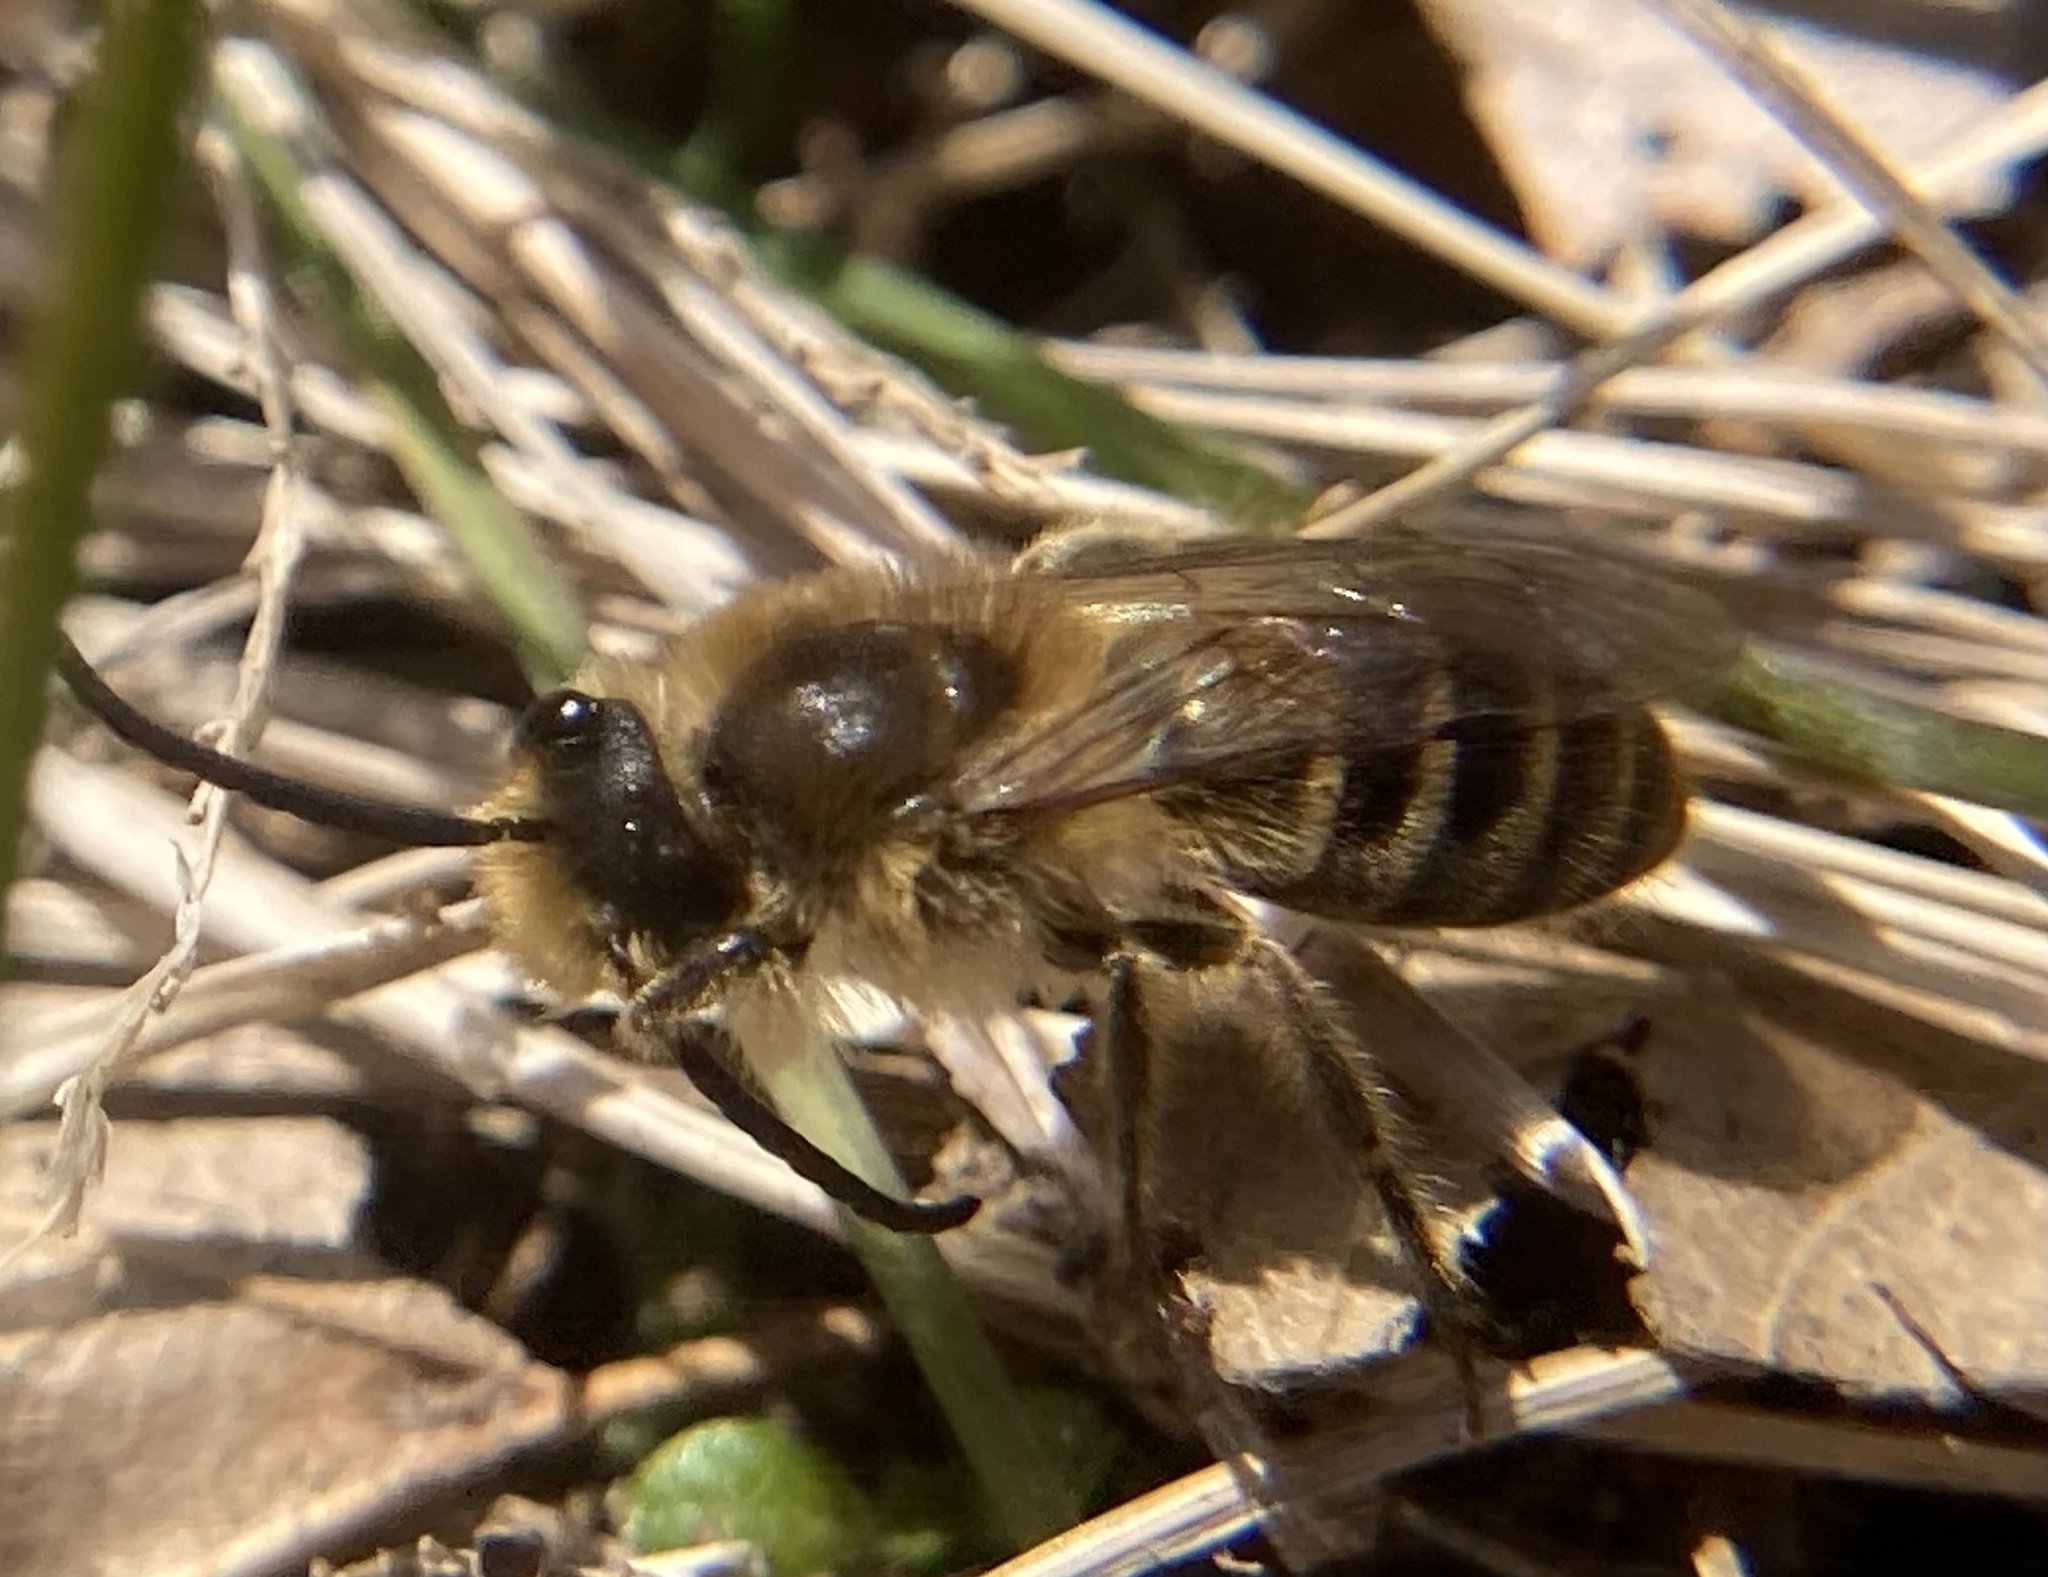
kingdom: Animalia
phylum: Arthropoda
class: Insecta
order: Hymenoptera
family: Colletidae
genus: Colletes
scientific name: Colletes inaequalis
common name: Unequal cellophane bee
